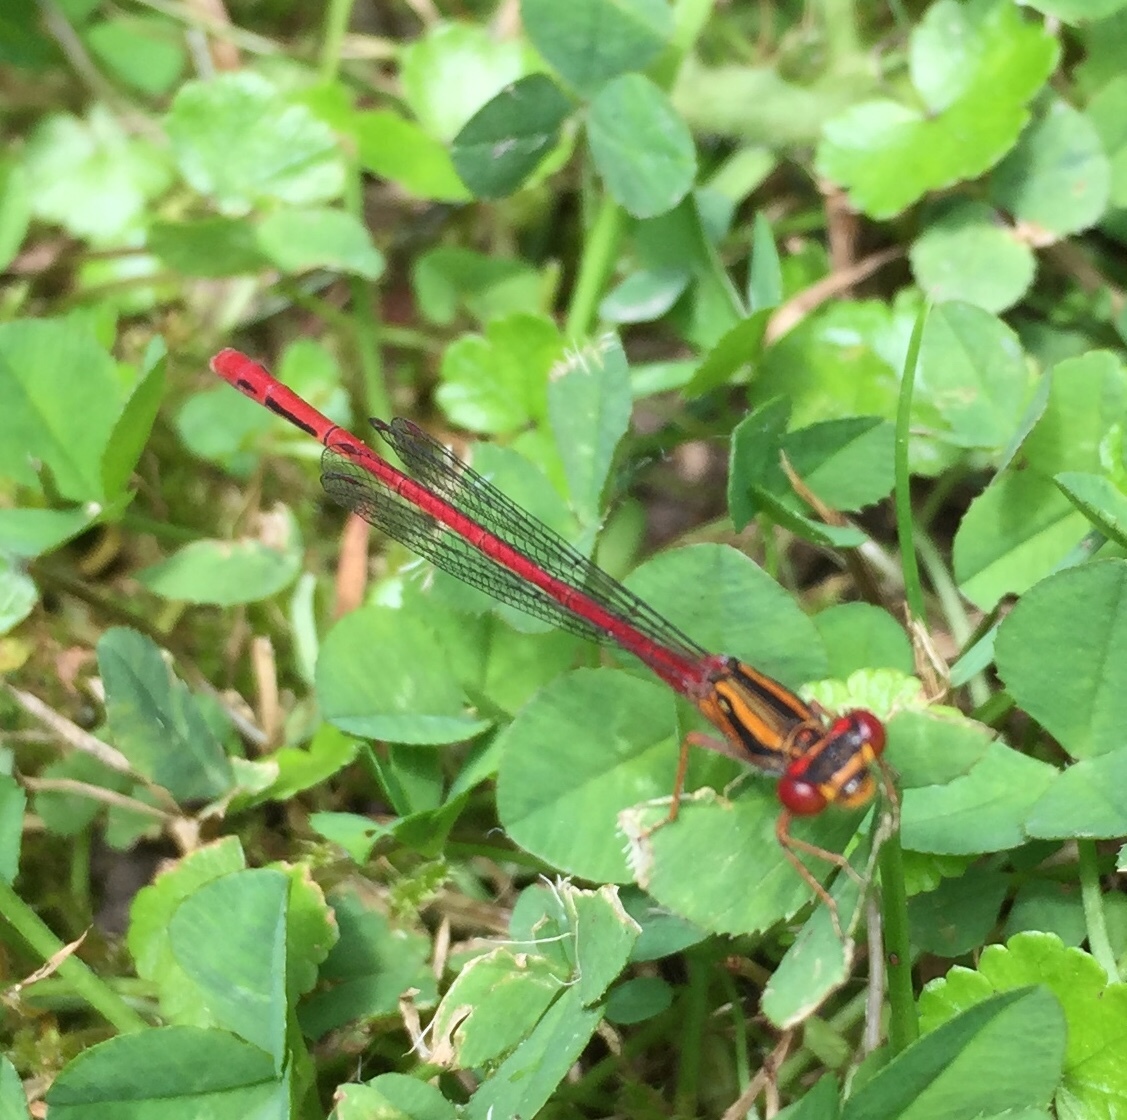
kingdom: Animalia
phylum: Arthropoda
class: Insecta
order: Odonata
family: Coenagrionidae
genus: Xanthocnemis
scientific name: Xanthocnemis zealandica
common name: Common redcoat damselfly
